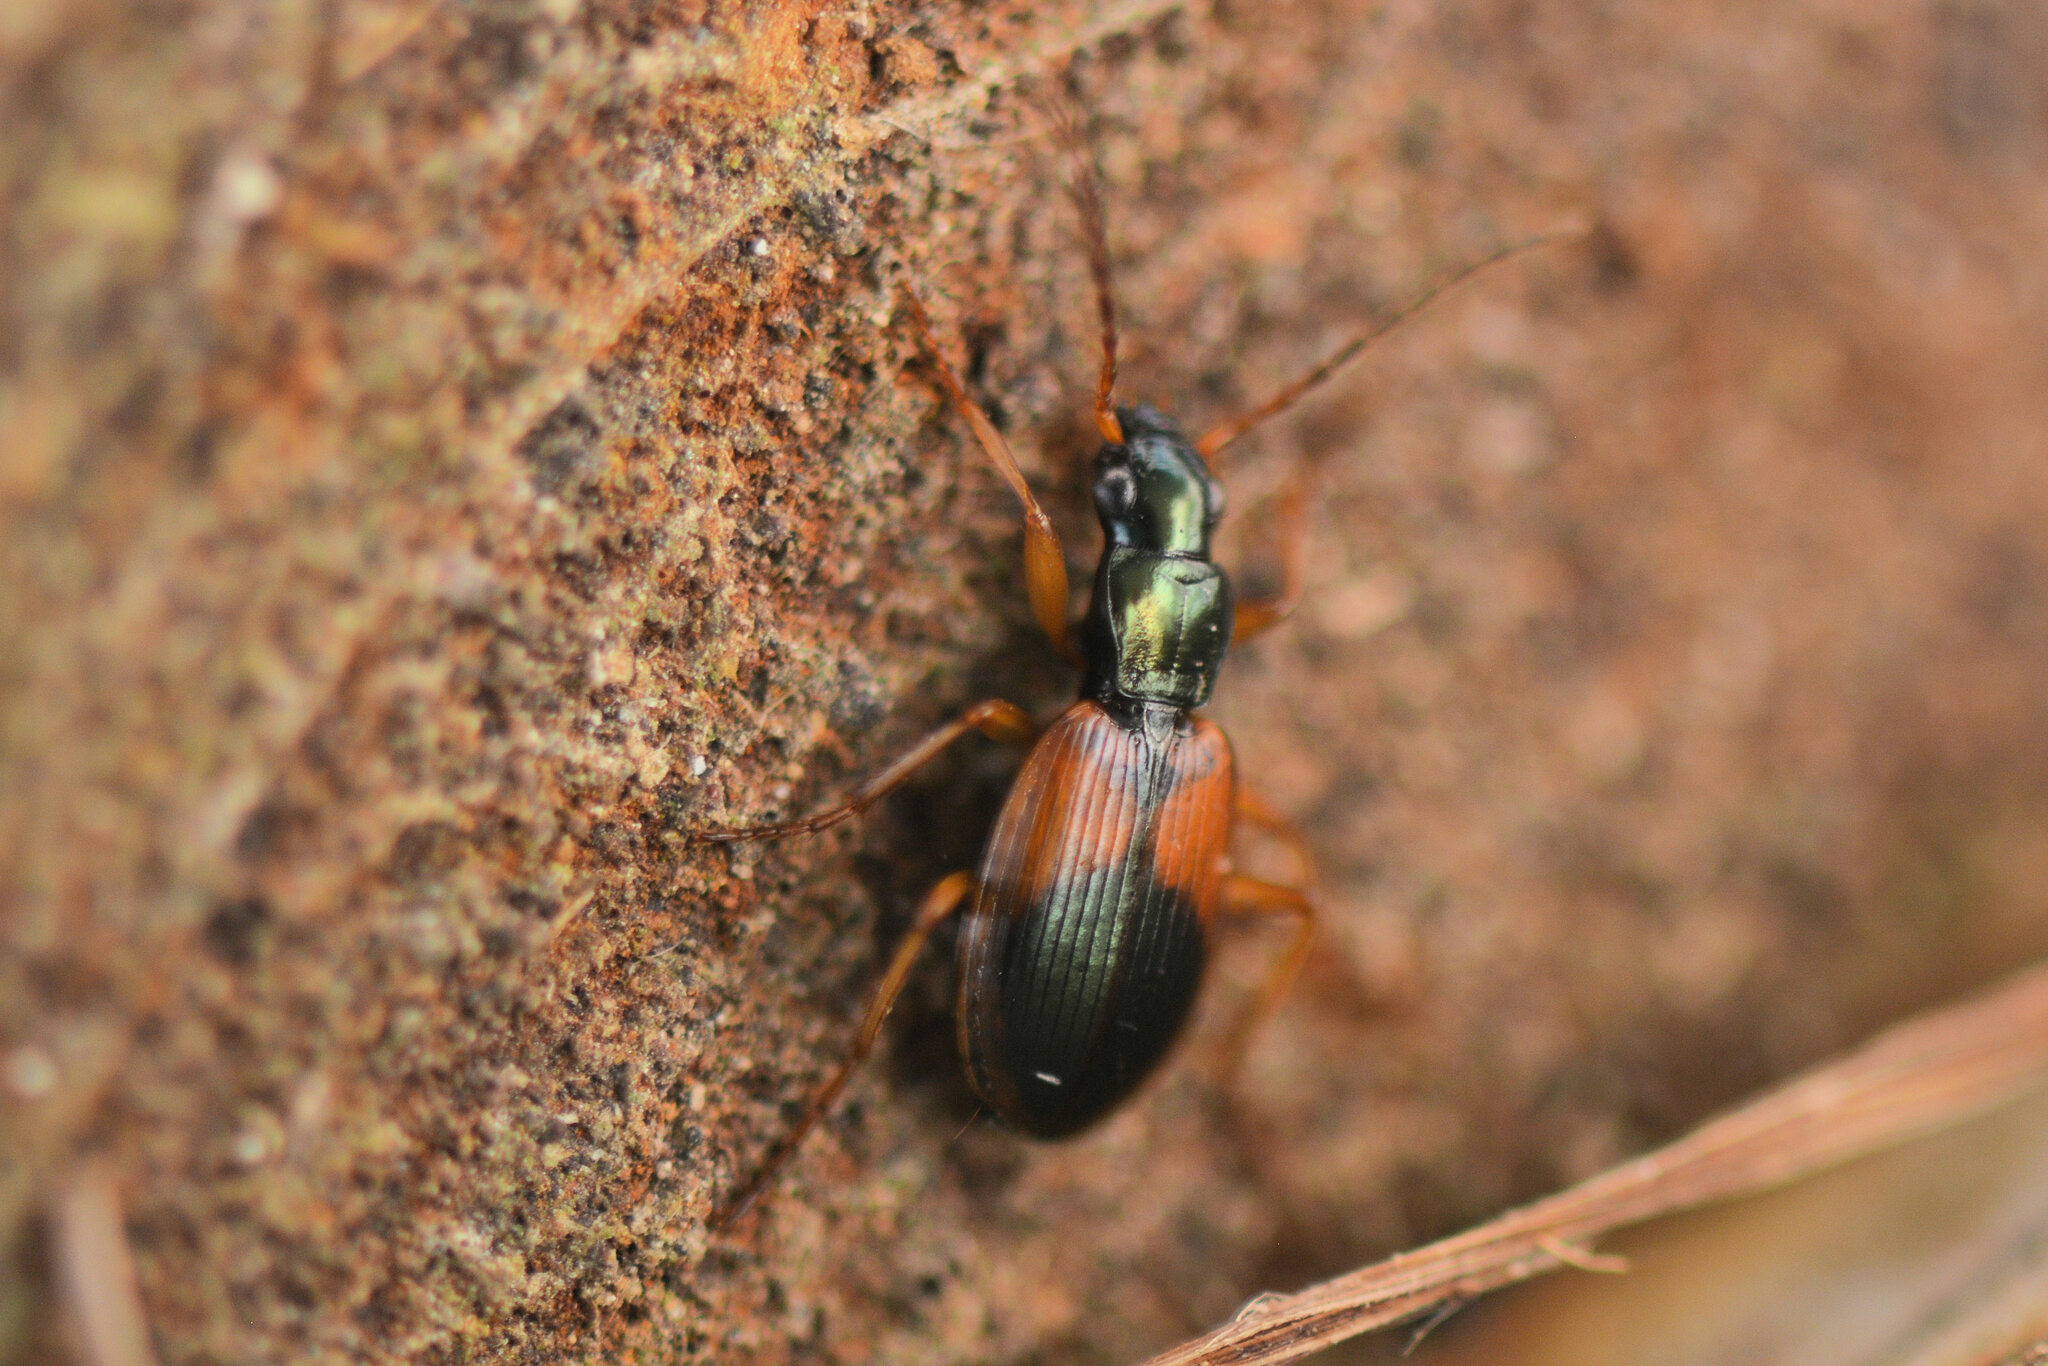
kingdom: Animalia
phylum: Arthropoda
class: Insecta
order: Coleoptera
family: Carabidae
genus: Anchomenus
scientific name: Anchomenus dorsalis
